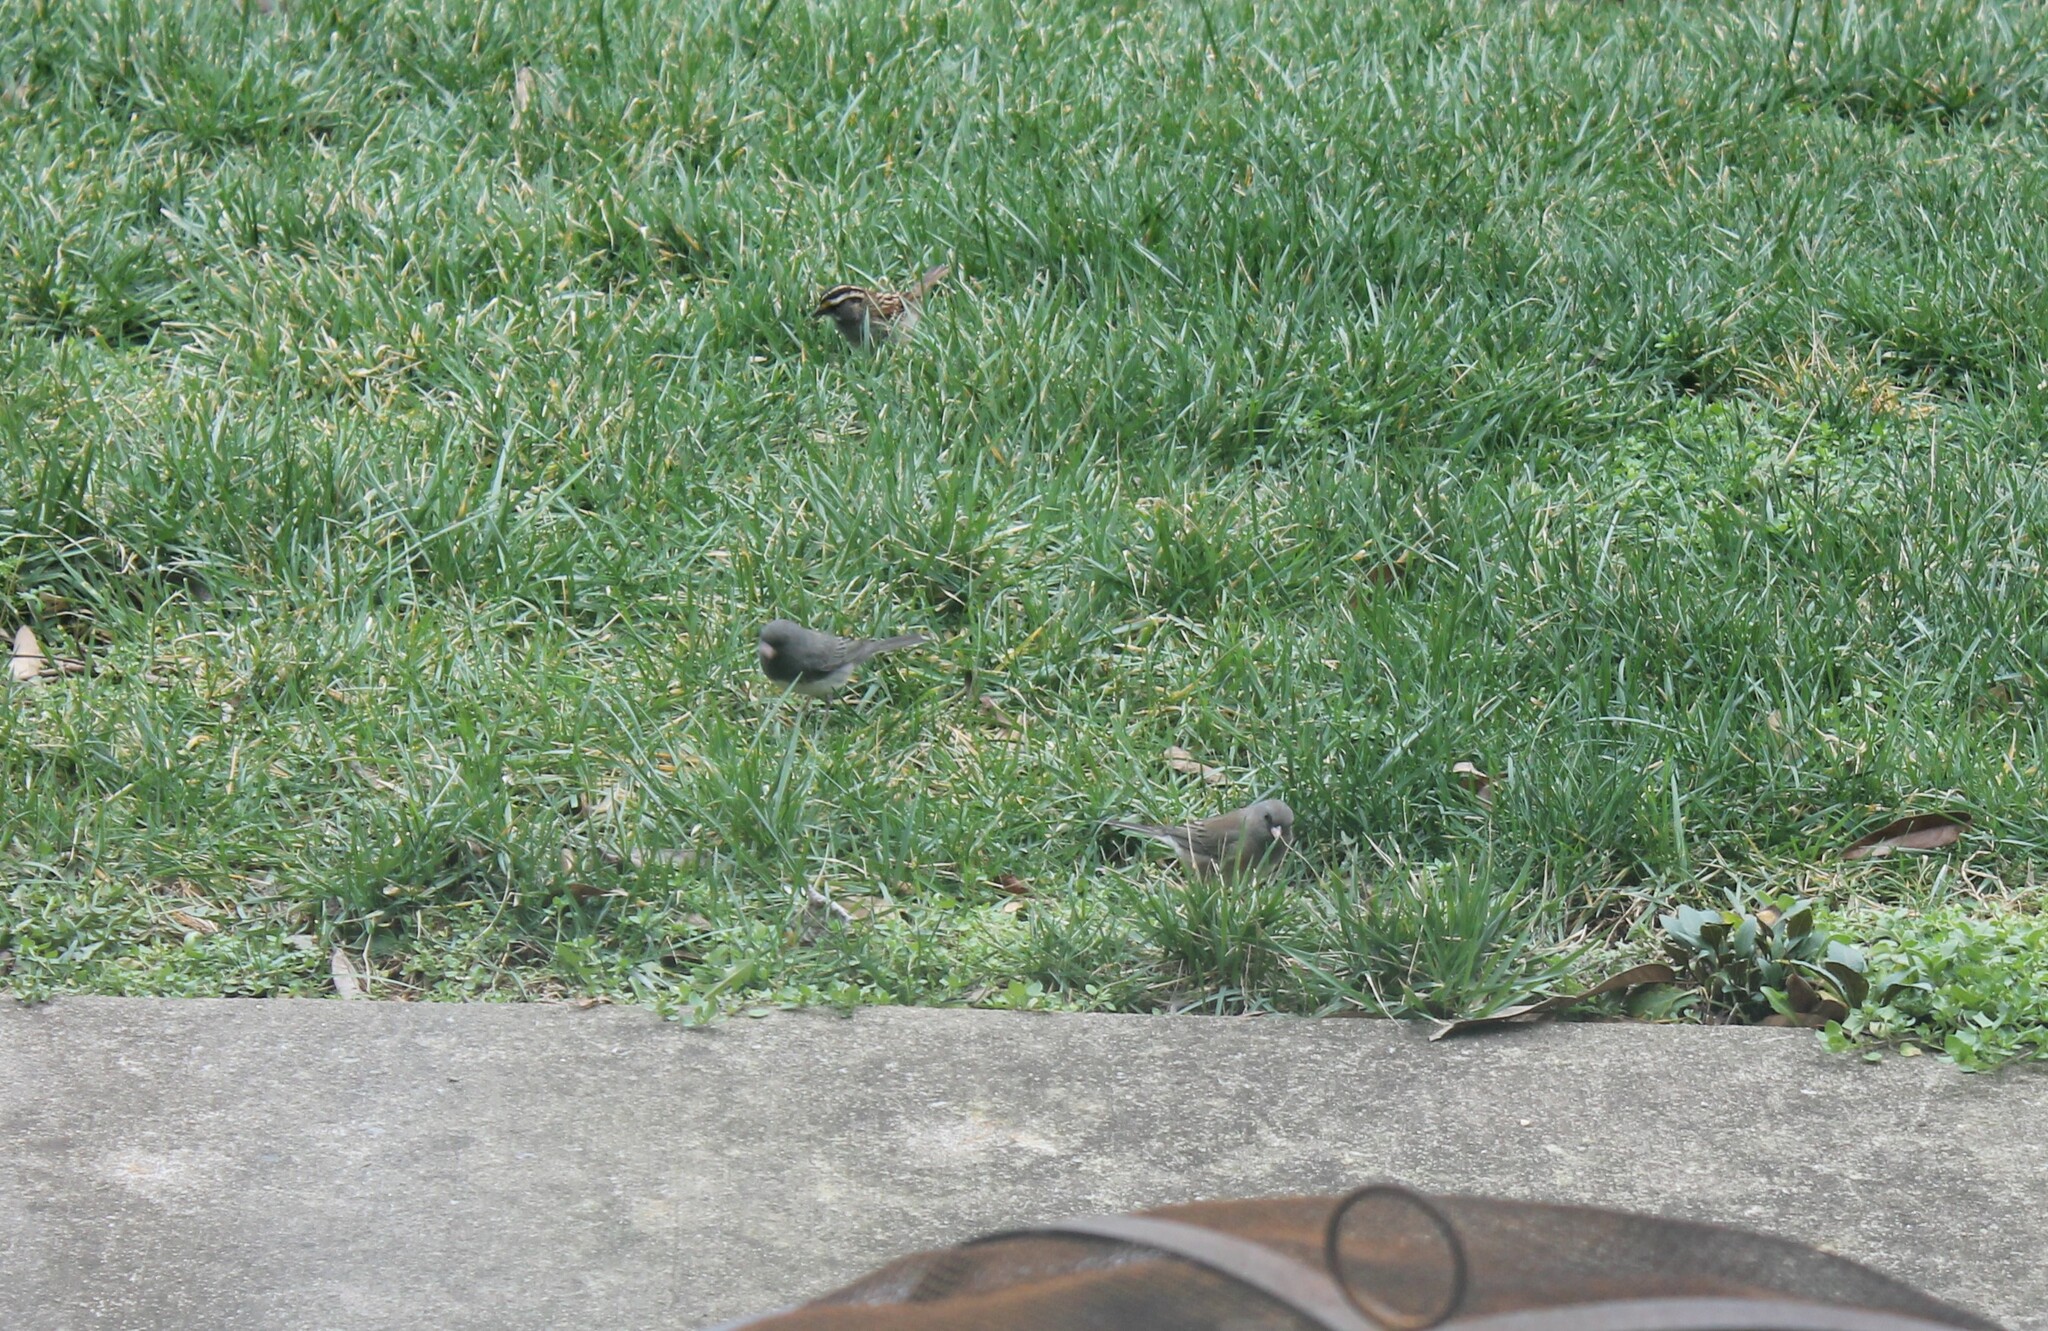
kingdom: Animalia
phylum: Chordata
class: Aves
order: Passeriformes
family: Passerellidae
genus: Junco
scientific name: Junco hyemalis
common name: Dark-eyed junco
